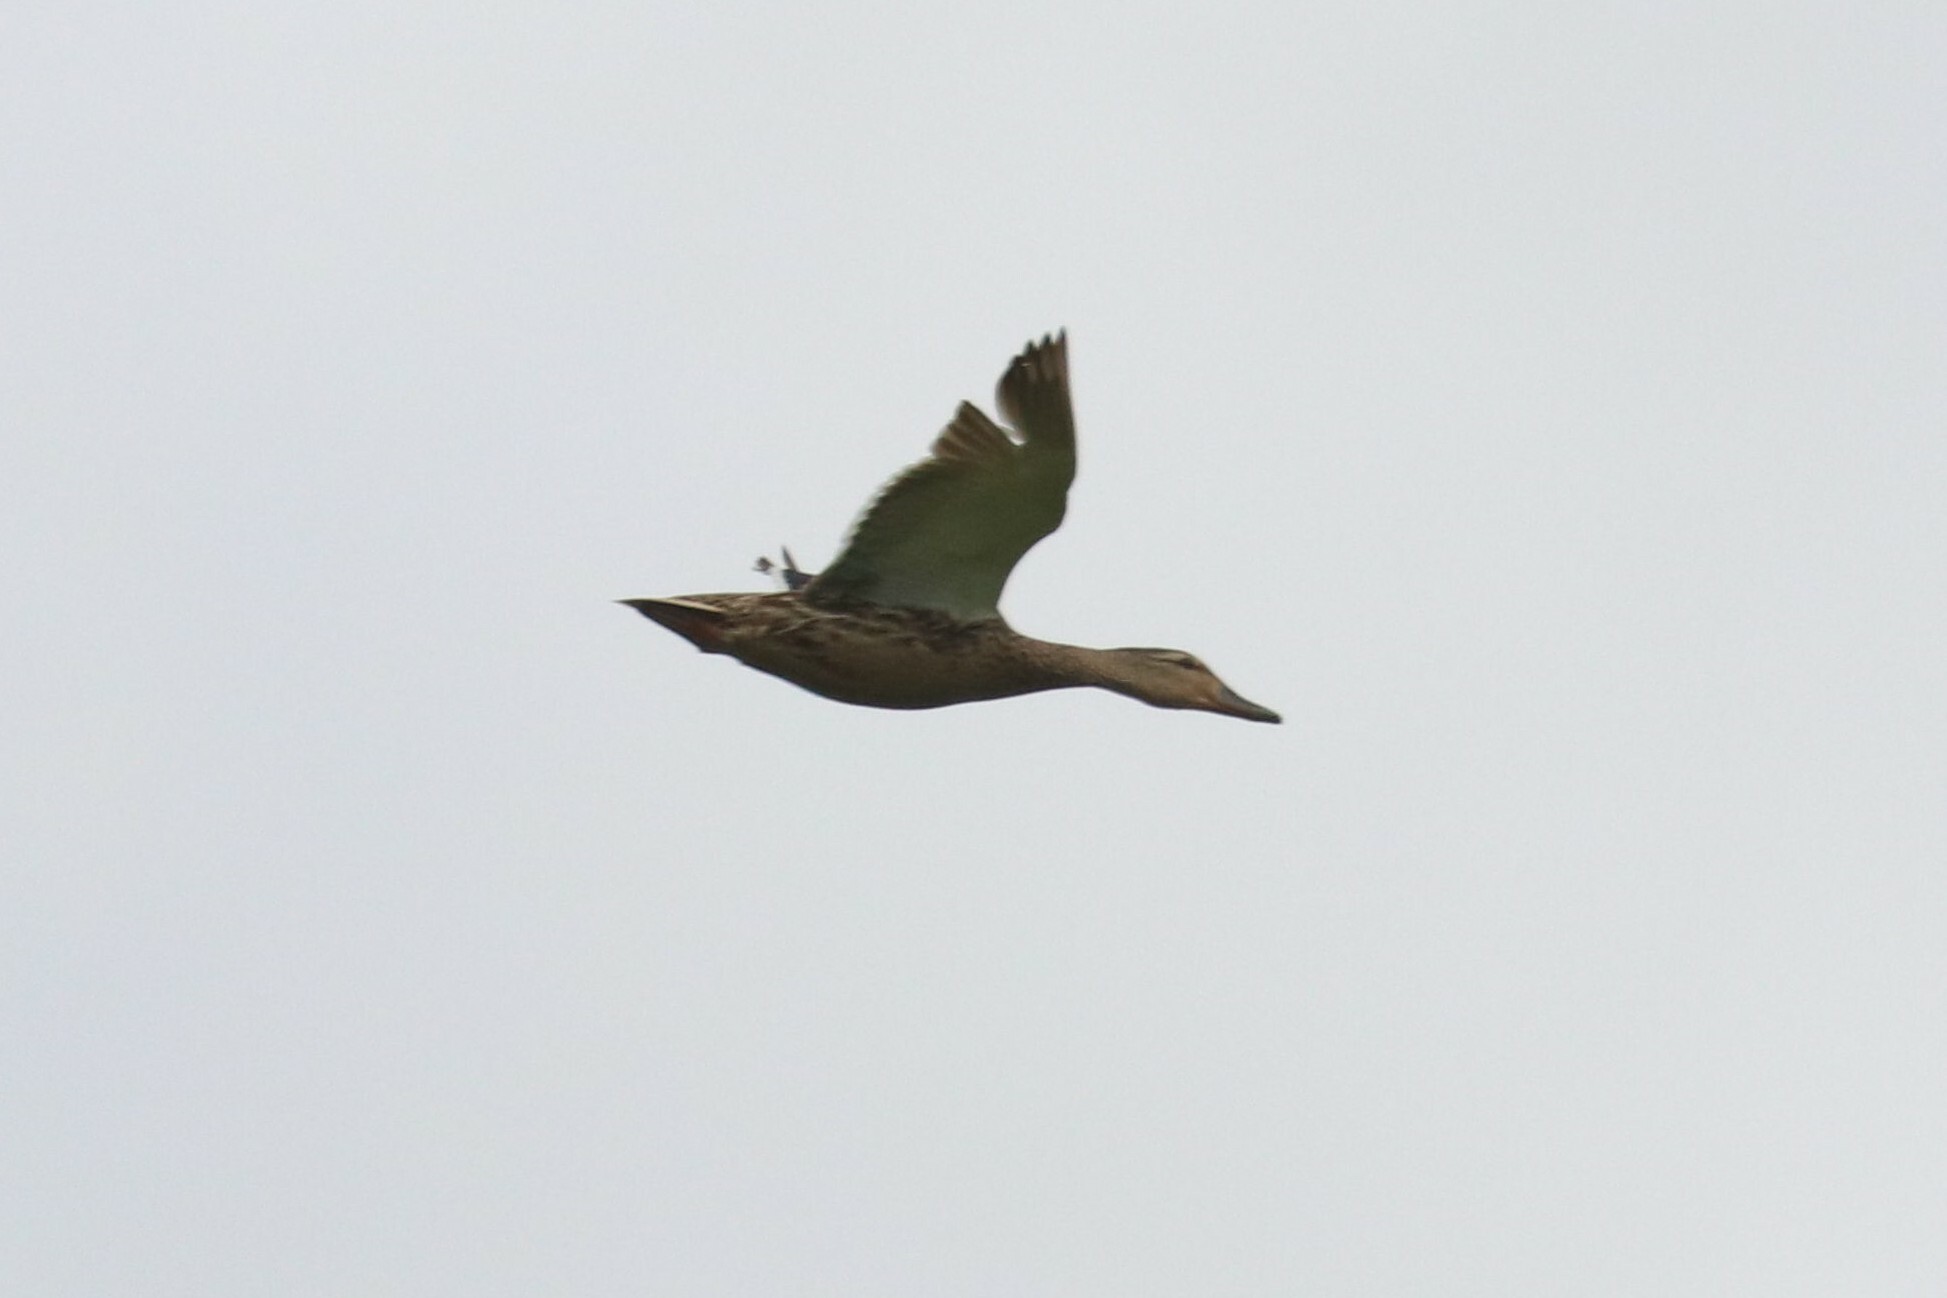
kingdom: Animalia
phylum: Chordata
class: Aves
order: Anseriformes
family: Anatidae
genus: Anas
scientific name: Anas platyrhynchos
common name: Mallard
